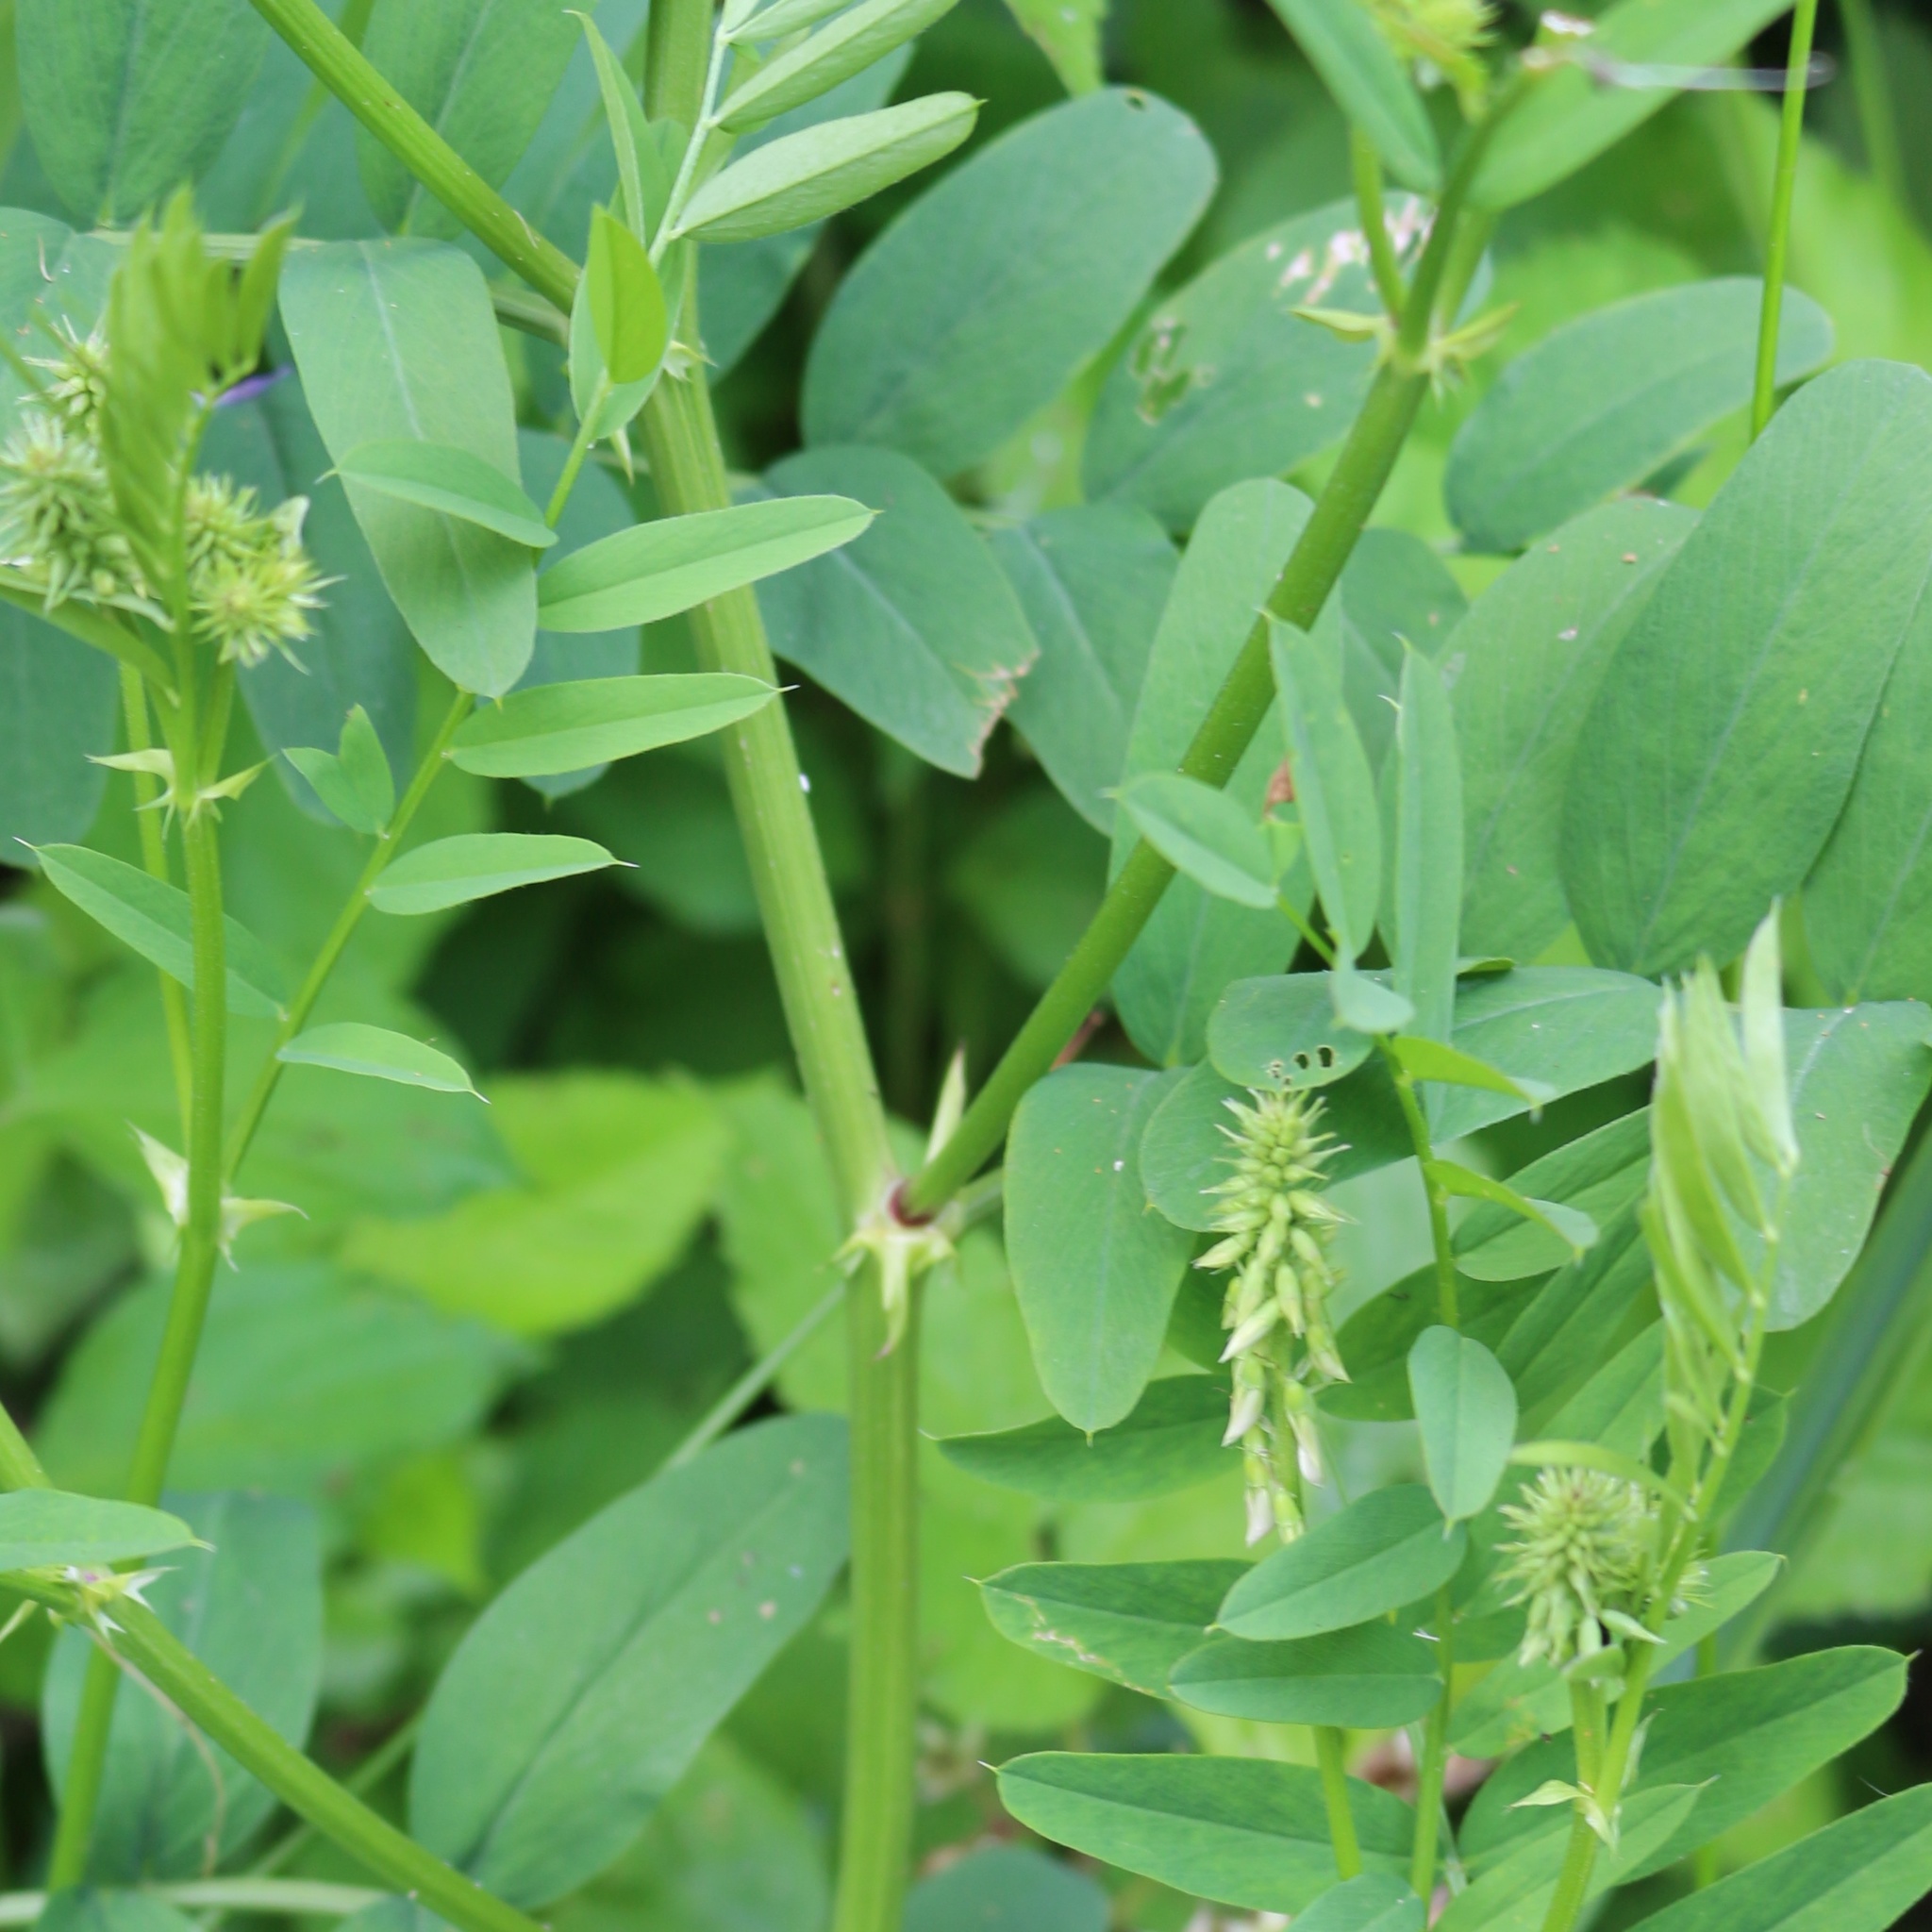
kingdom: Plantae
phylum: Tracheophyta
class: Magnoliopsida
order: Fabales
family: Fabaceae
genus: Galega
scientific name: Galega officinalis
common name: Goat's-rue
